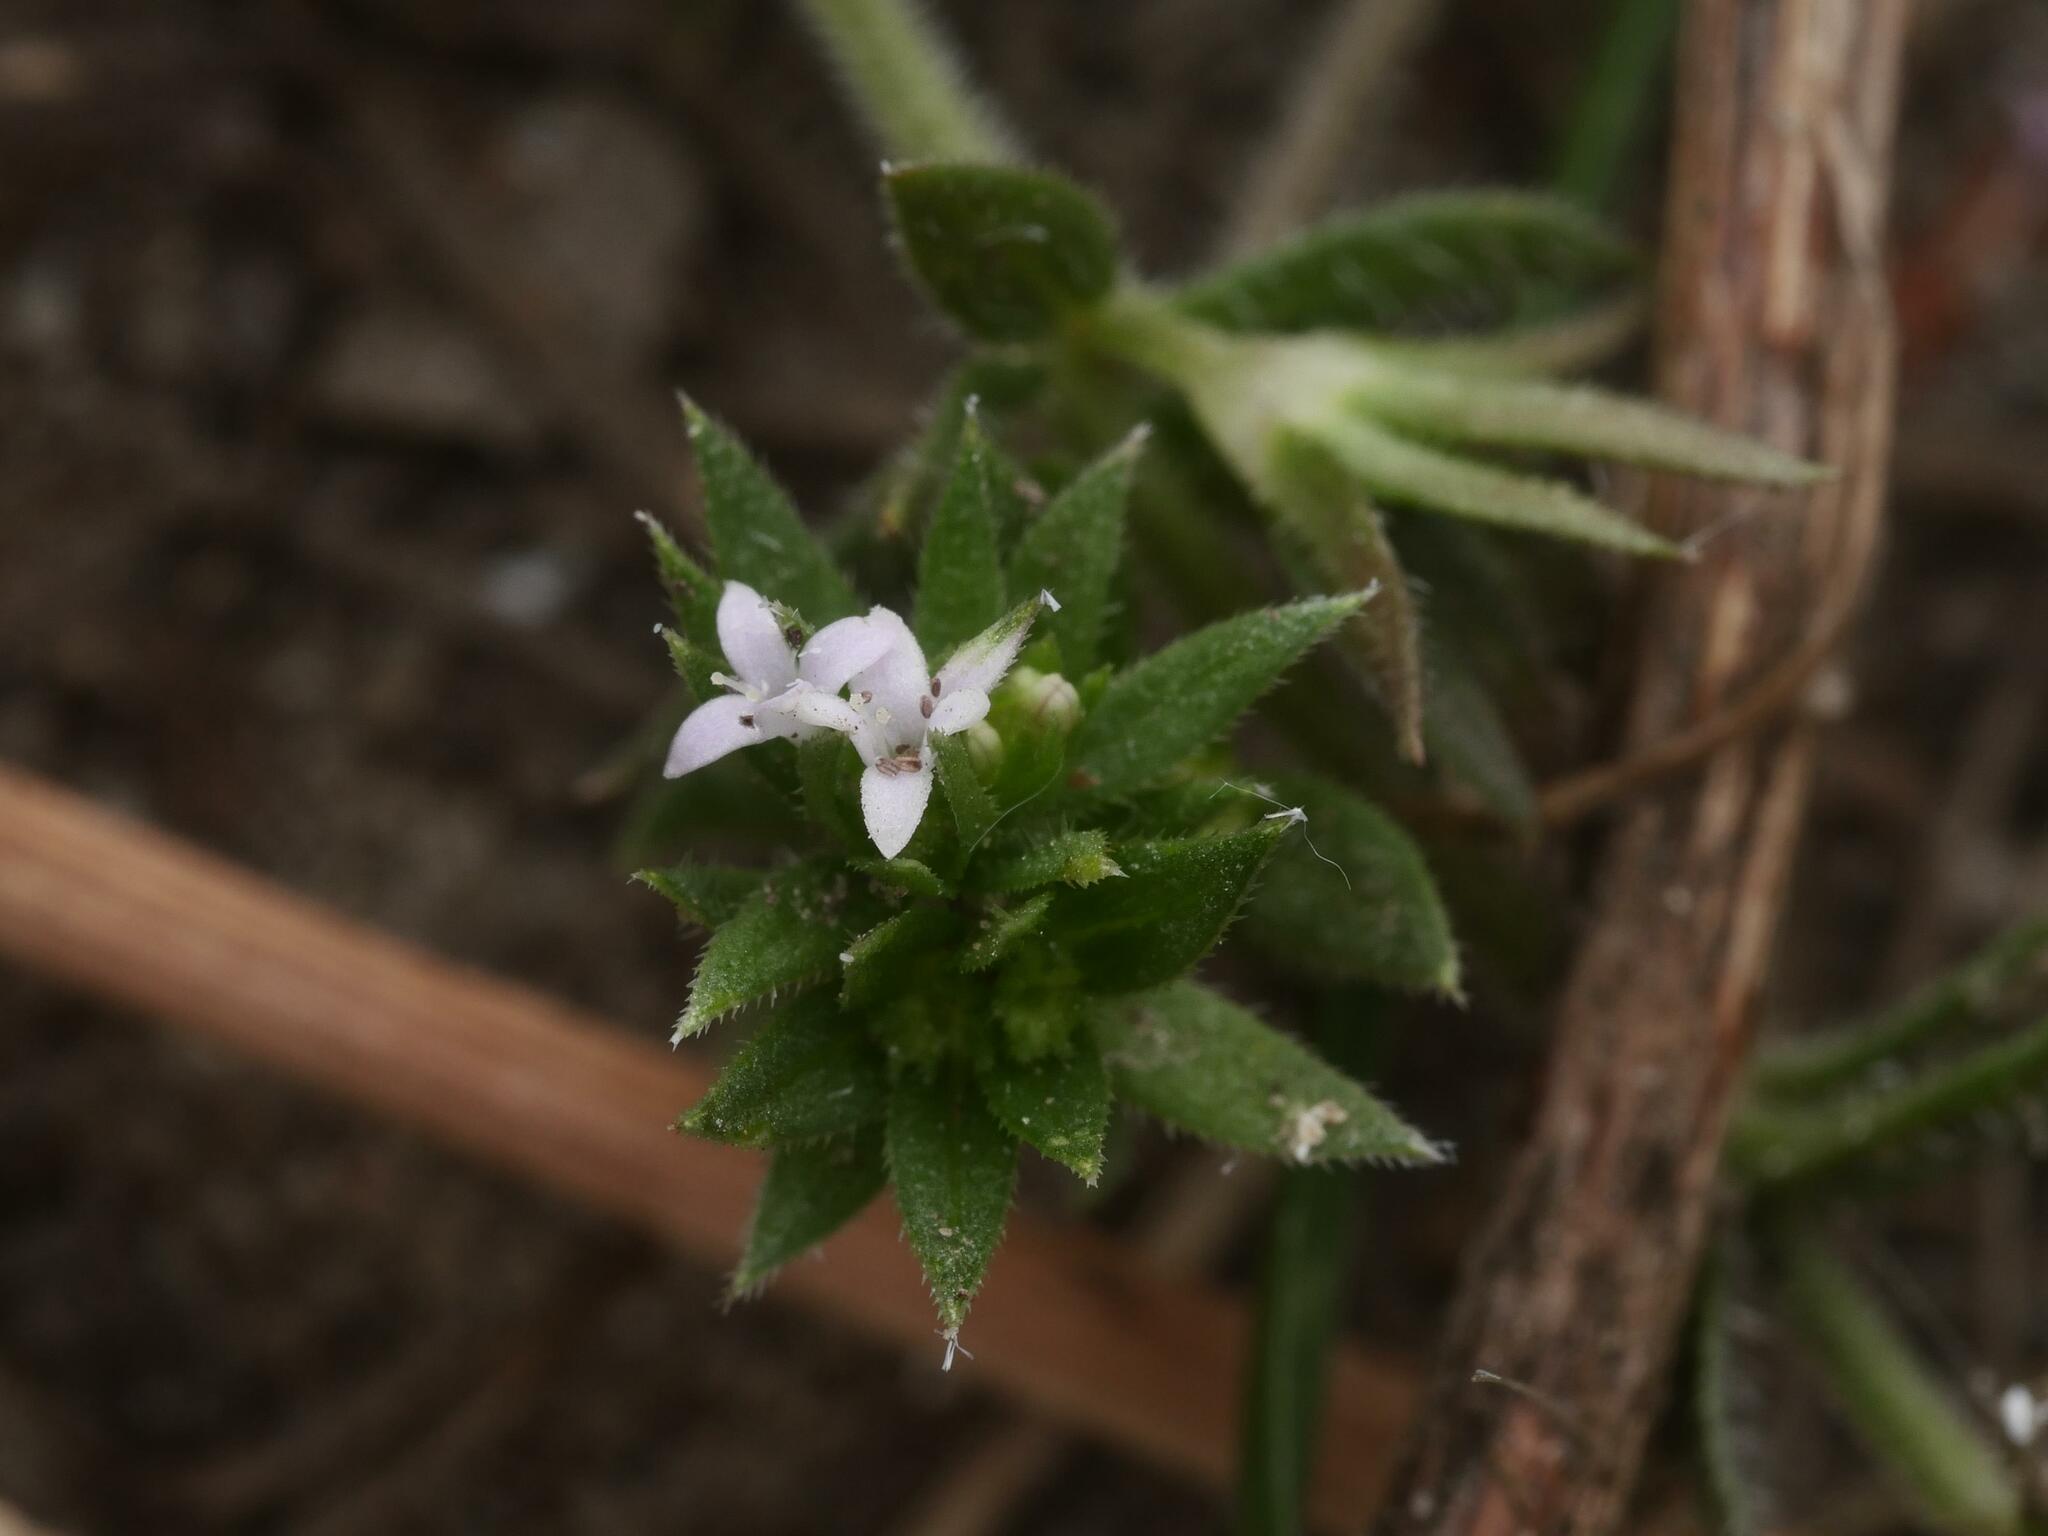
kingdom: Plantae
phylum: Tracheophyta
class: Magnoliopsida
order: Gentianales
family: Rubiaceae
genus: Sherardia
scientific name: Sherardia arvensis
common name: Field madder
